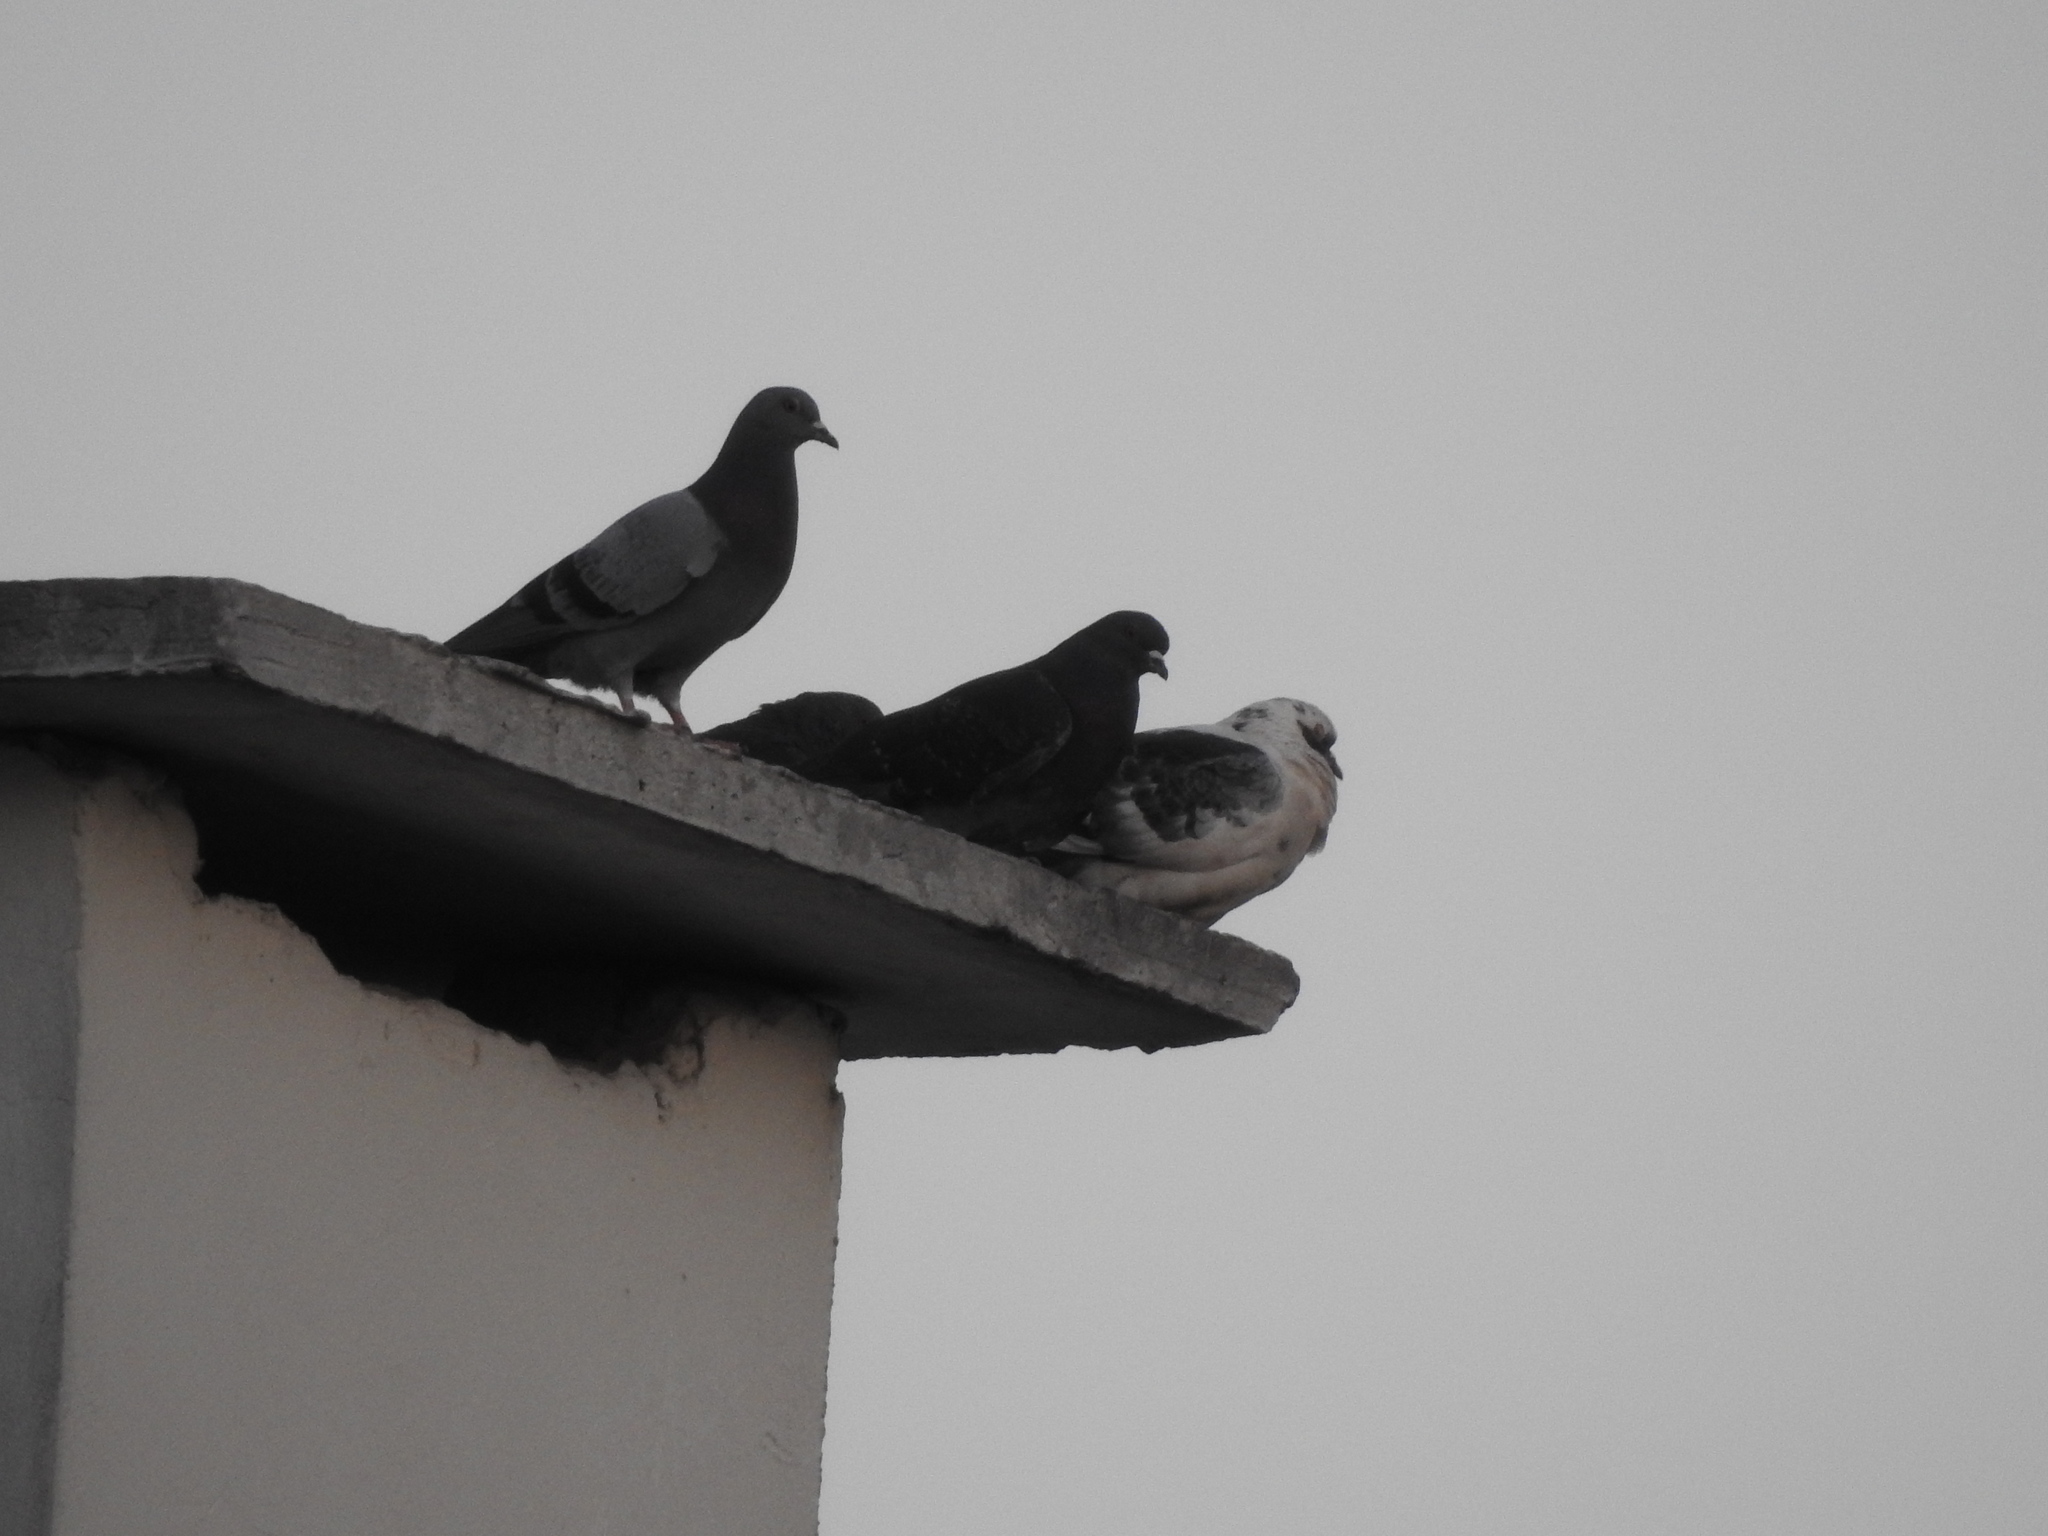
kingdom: Animalia
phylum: Chordata
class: Aves
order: Columbiformes
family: Columbidae
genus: Columba
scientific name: Columba livia
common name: Rock pigeon
